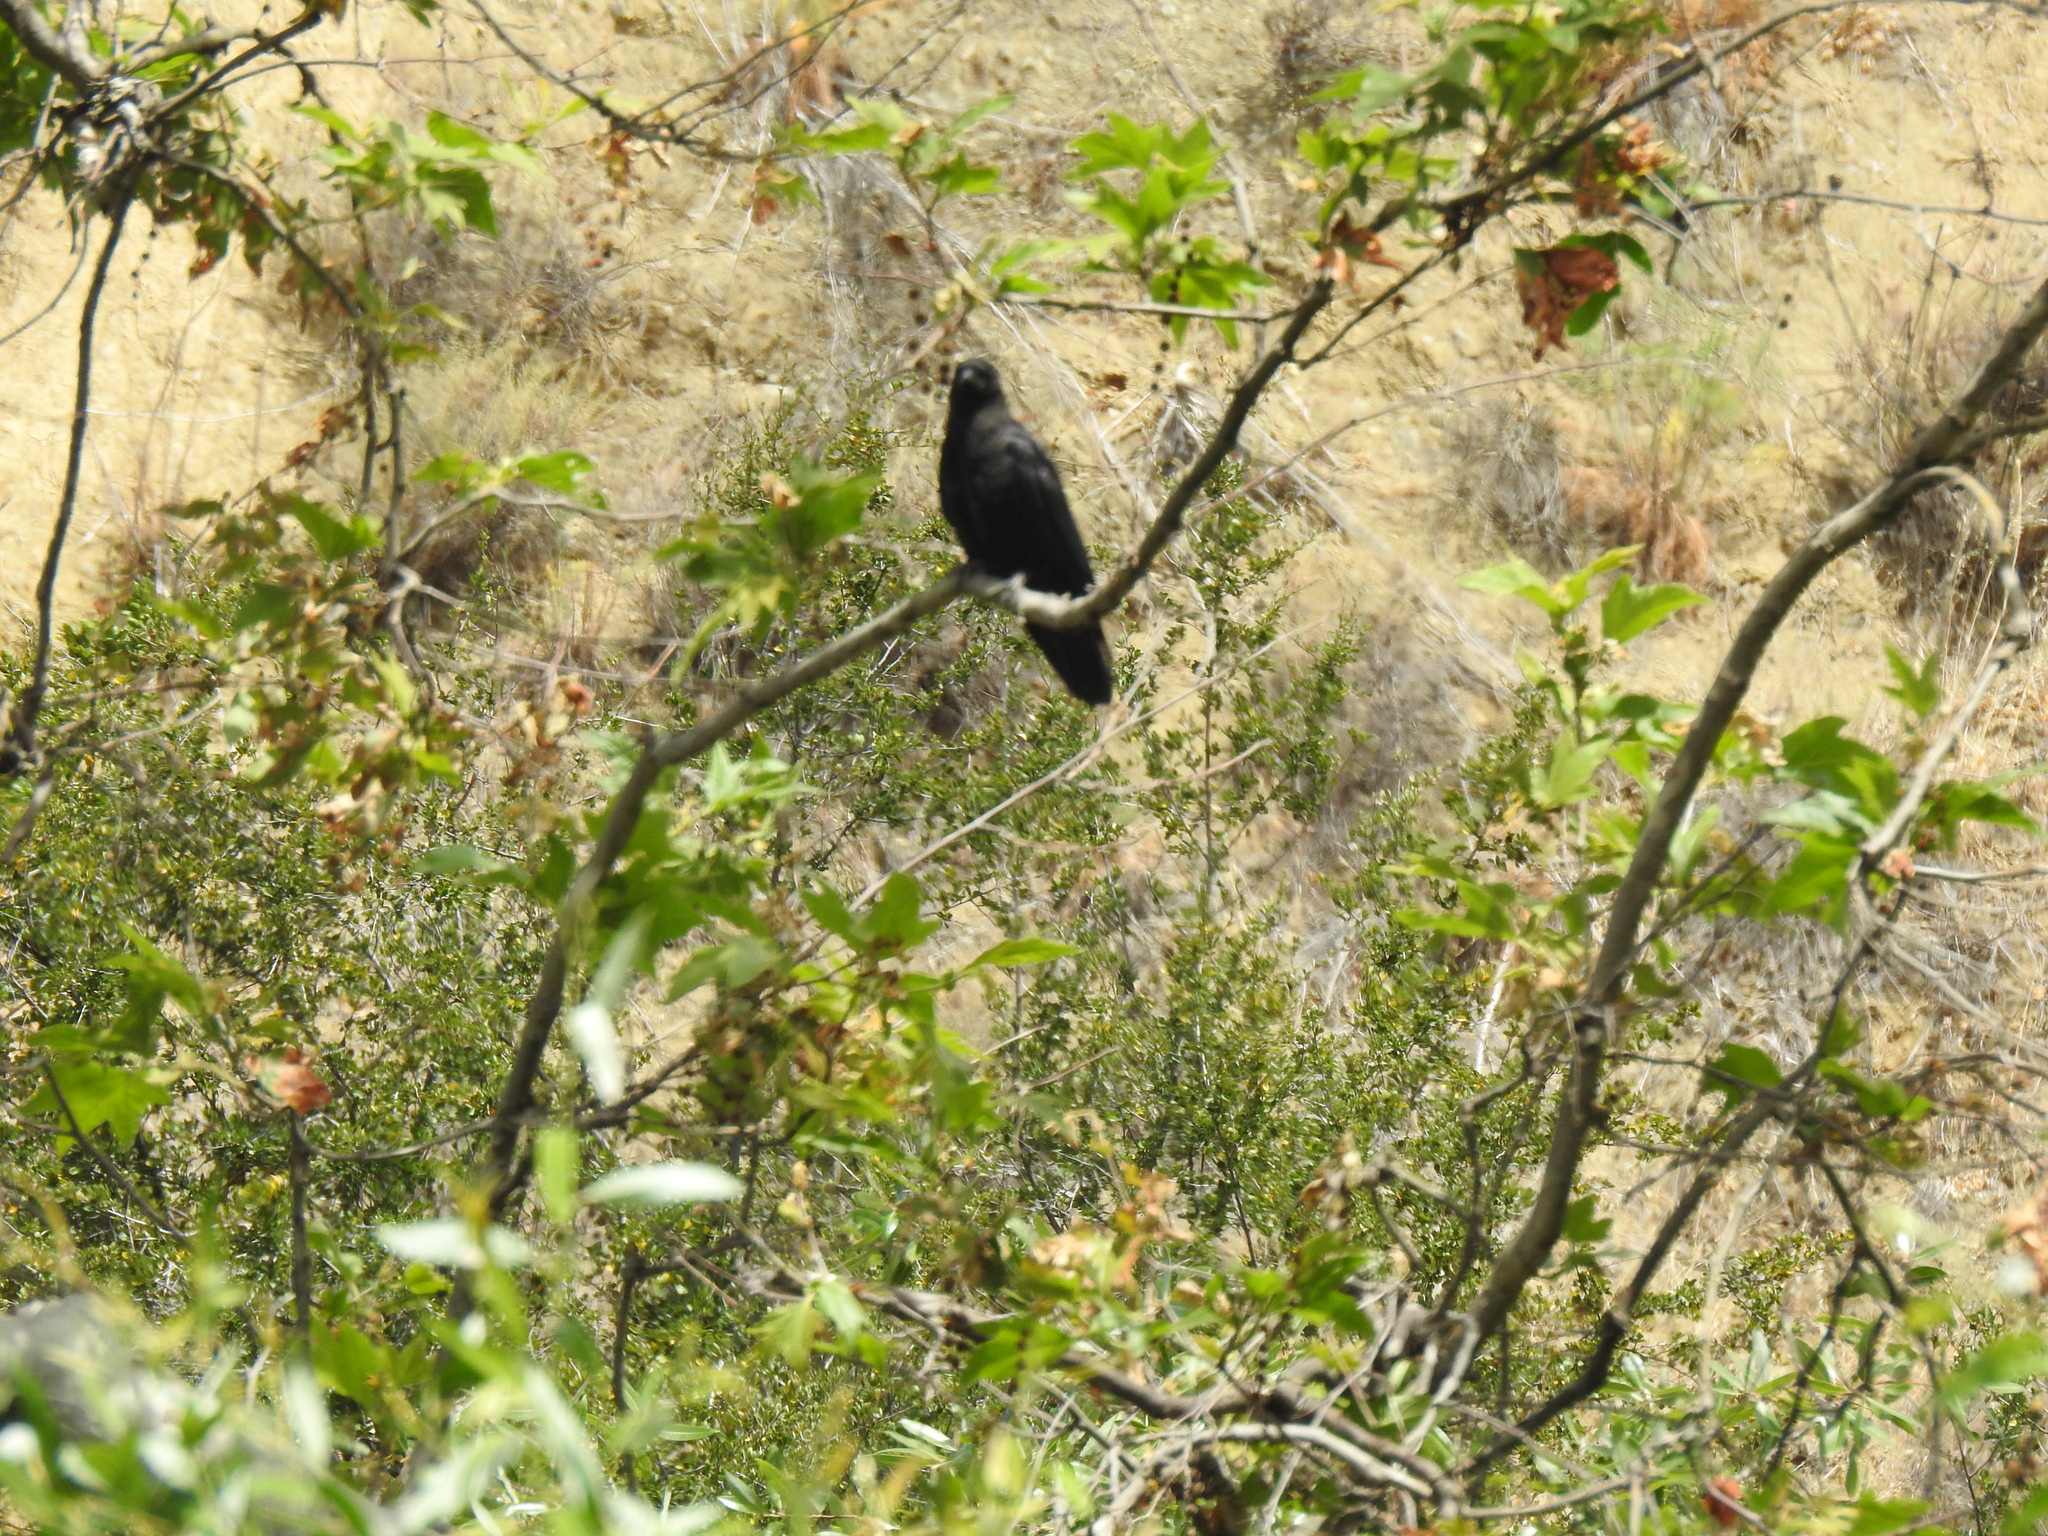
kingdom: Animalia
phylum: Chordata
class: Aves
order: Passeriformes
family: Corvidae
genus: Corvus
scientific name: Corvus brachyrhynchos
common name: American crow
